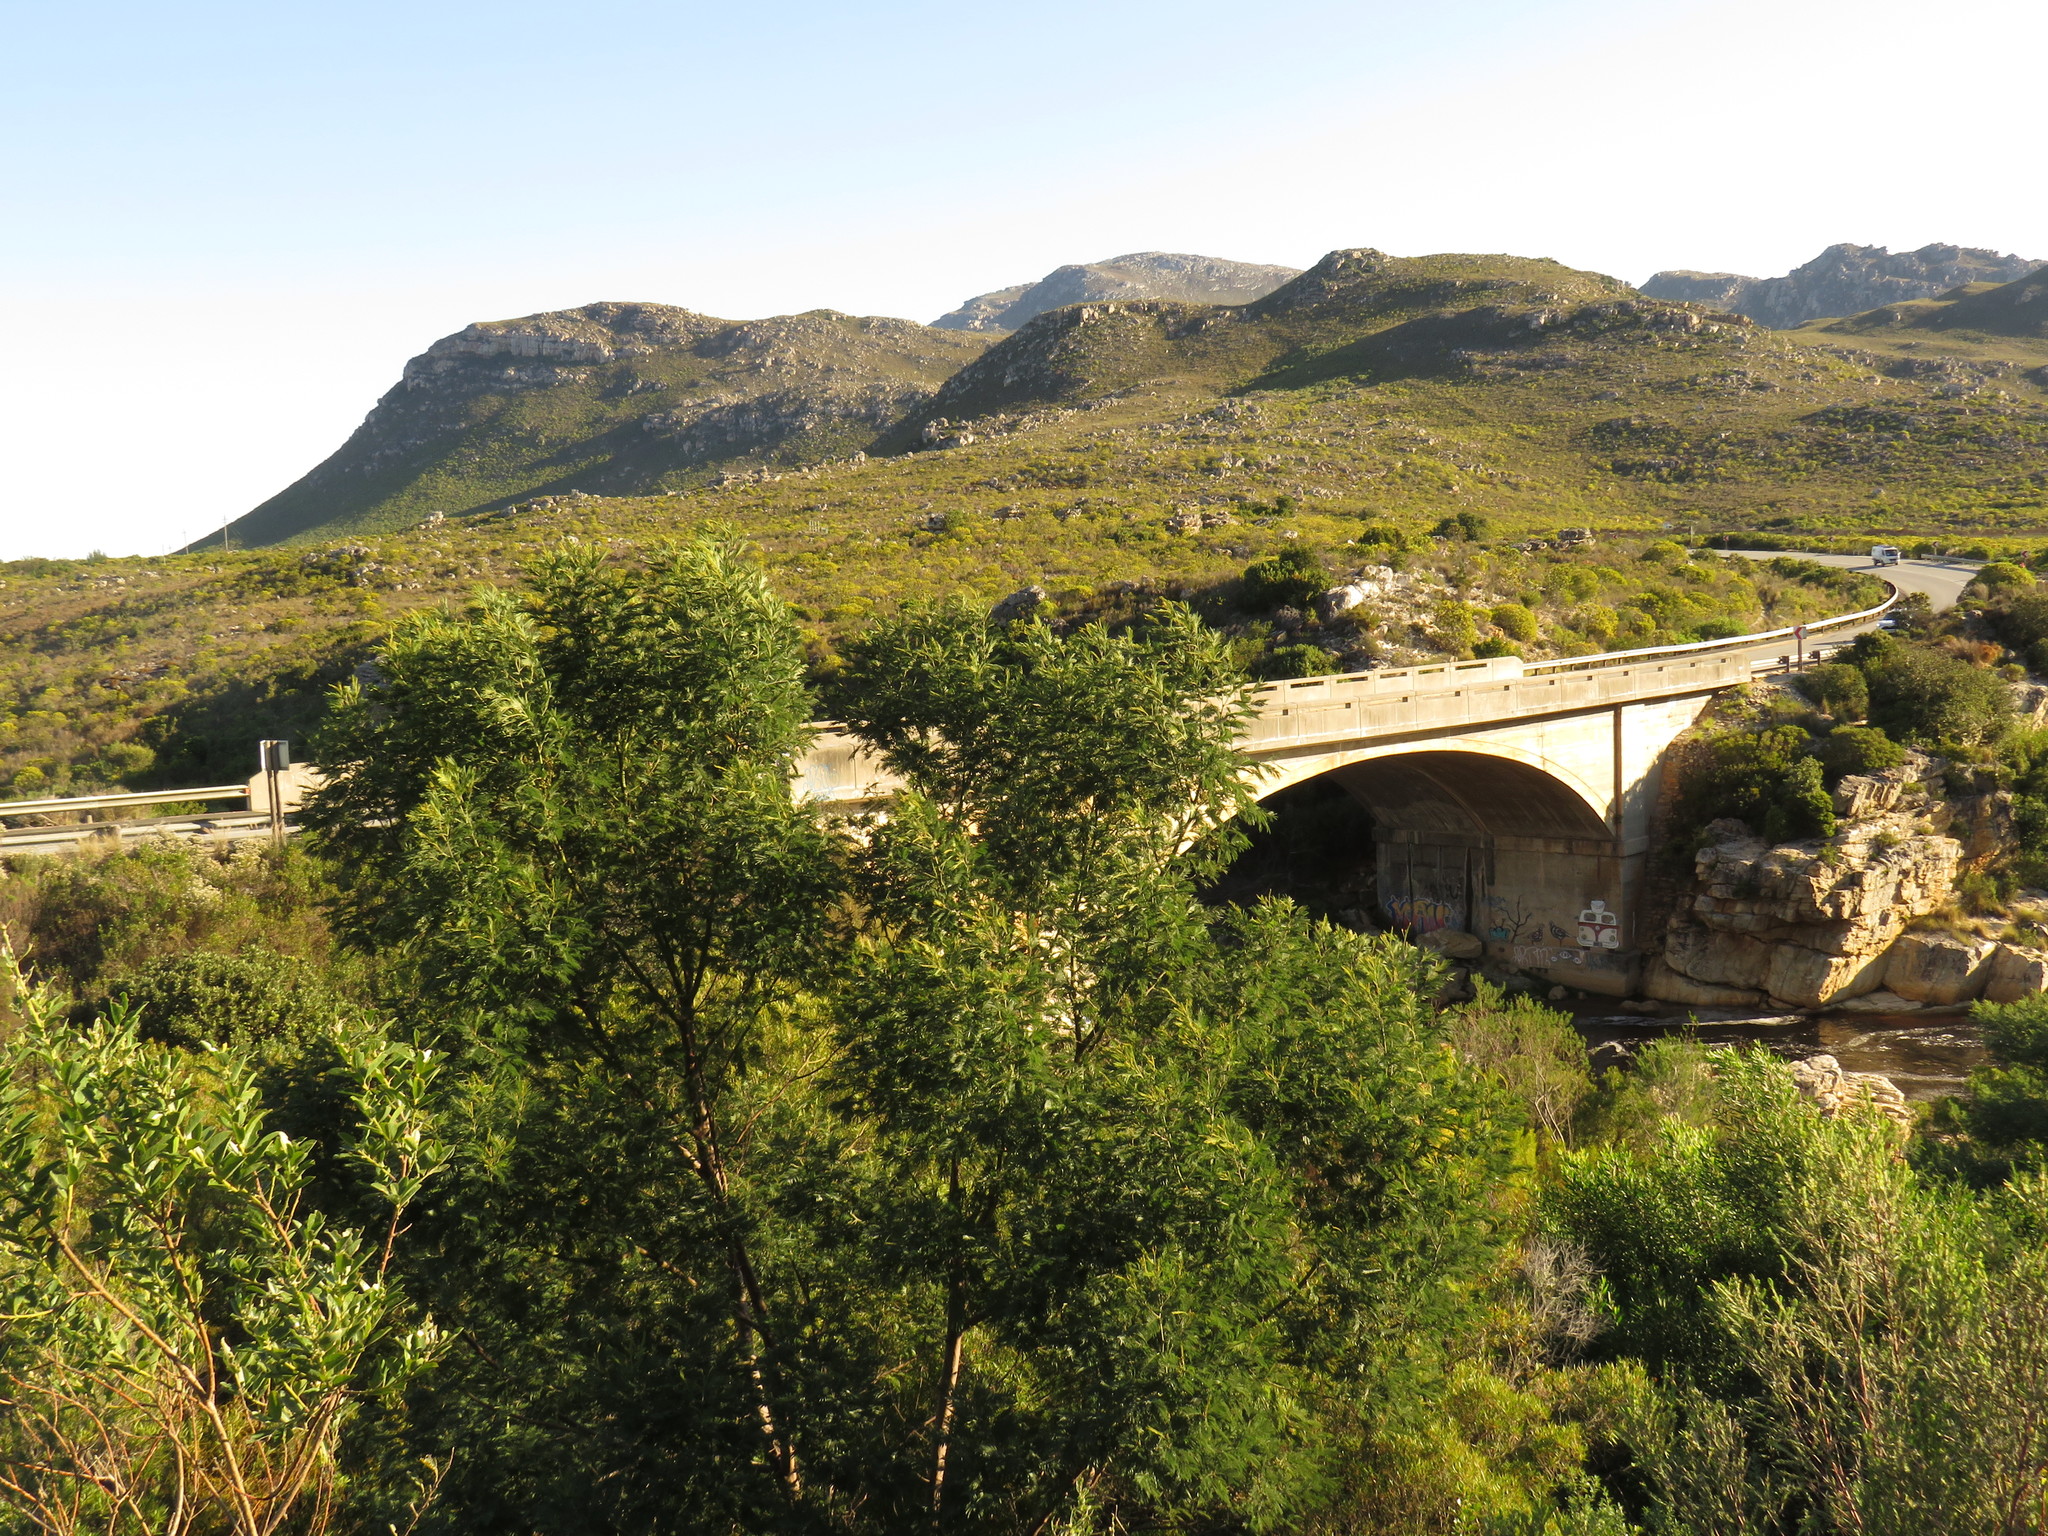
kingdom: Plantae
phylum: Tracheophyta
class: Magnoliopsida
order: Fabales
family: Fabaceae
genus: Acacia
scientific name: Acacia mearnsii
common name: Black wattle
